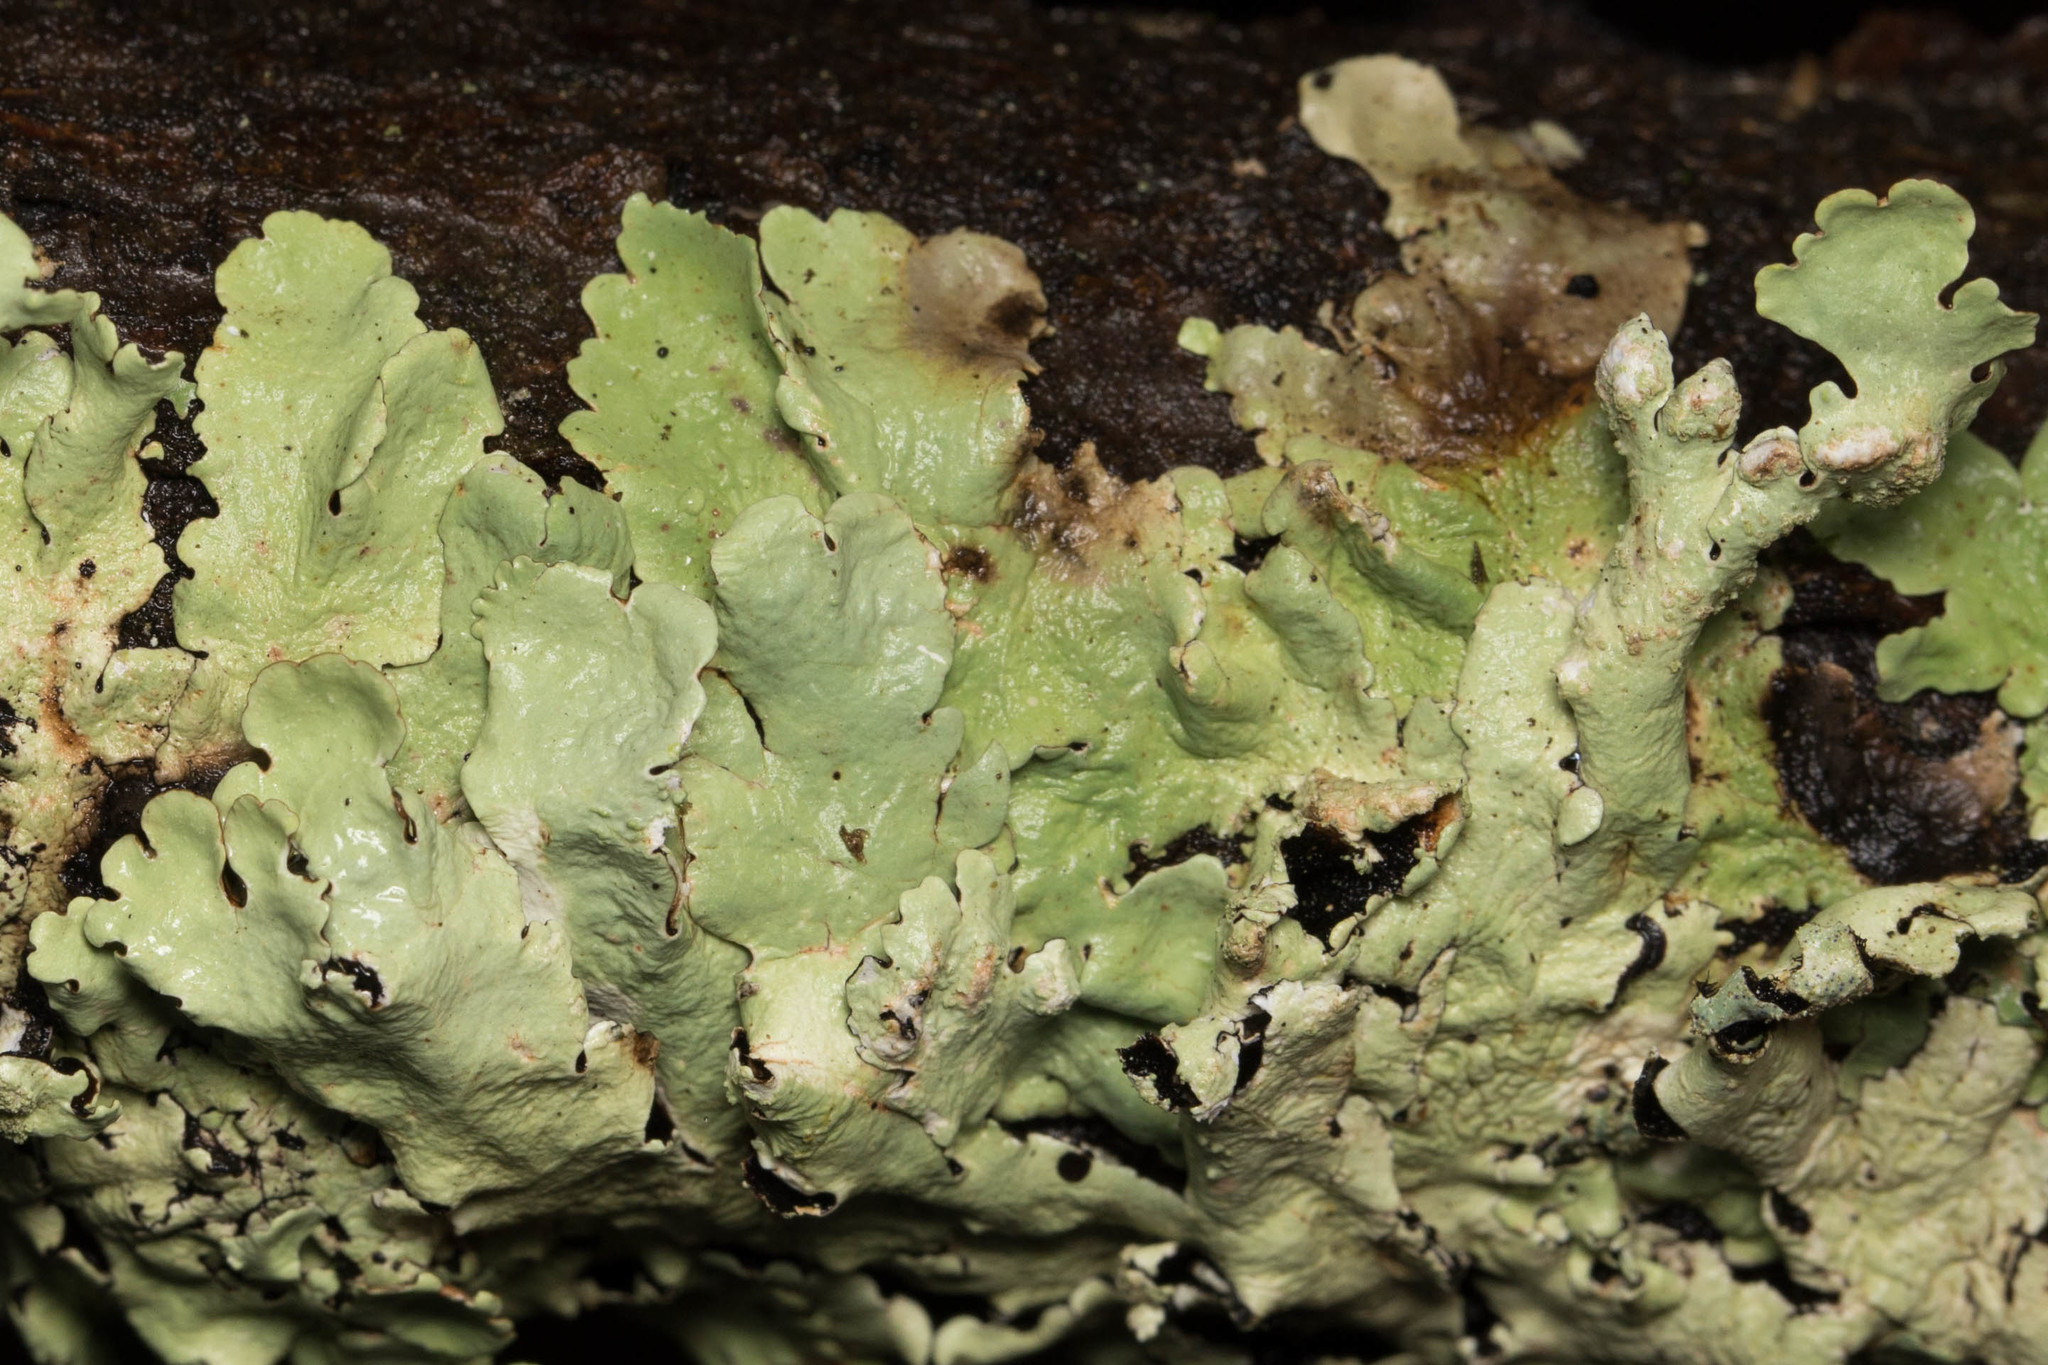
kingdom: Fungi
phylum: Ascomycota
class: Lecanoromycetes
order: Lecanorales
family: Parmeliaceae
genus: Flavoparmelia
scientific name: Flavoparmelia caperata
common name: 40-mile per hour lichen
